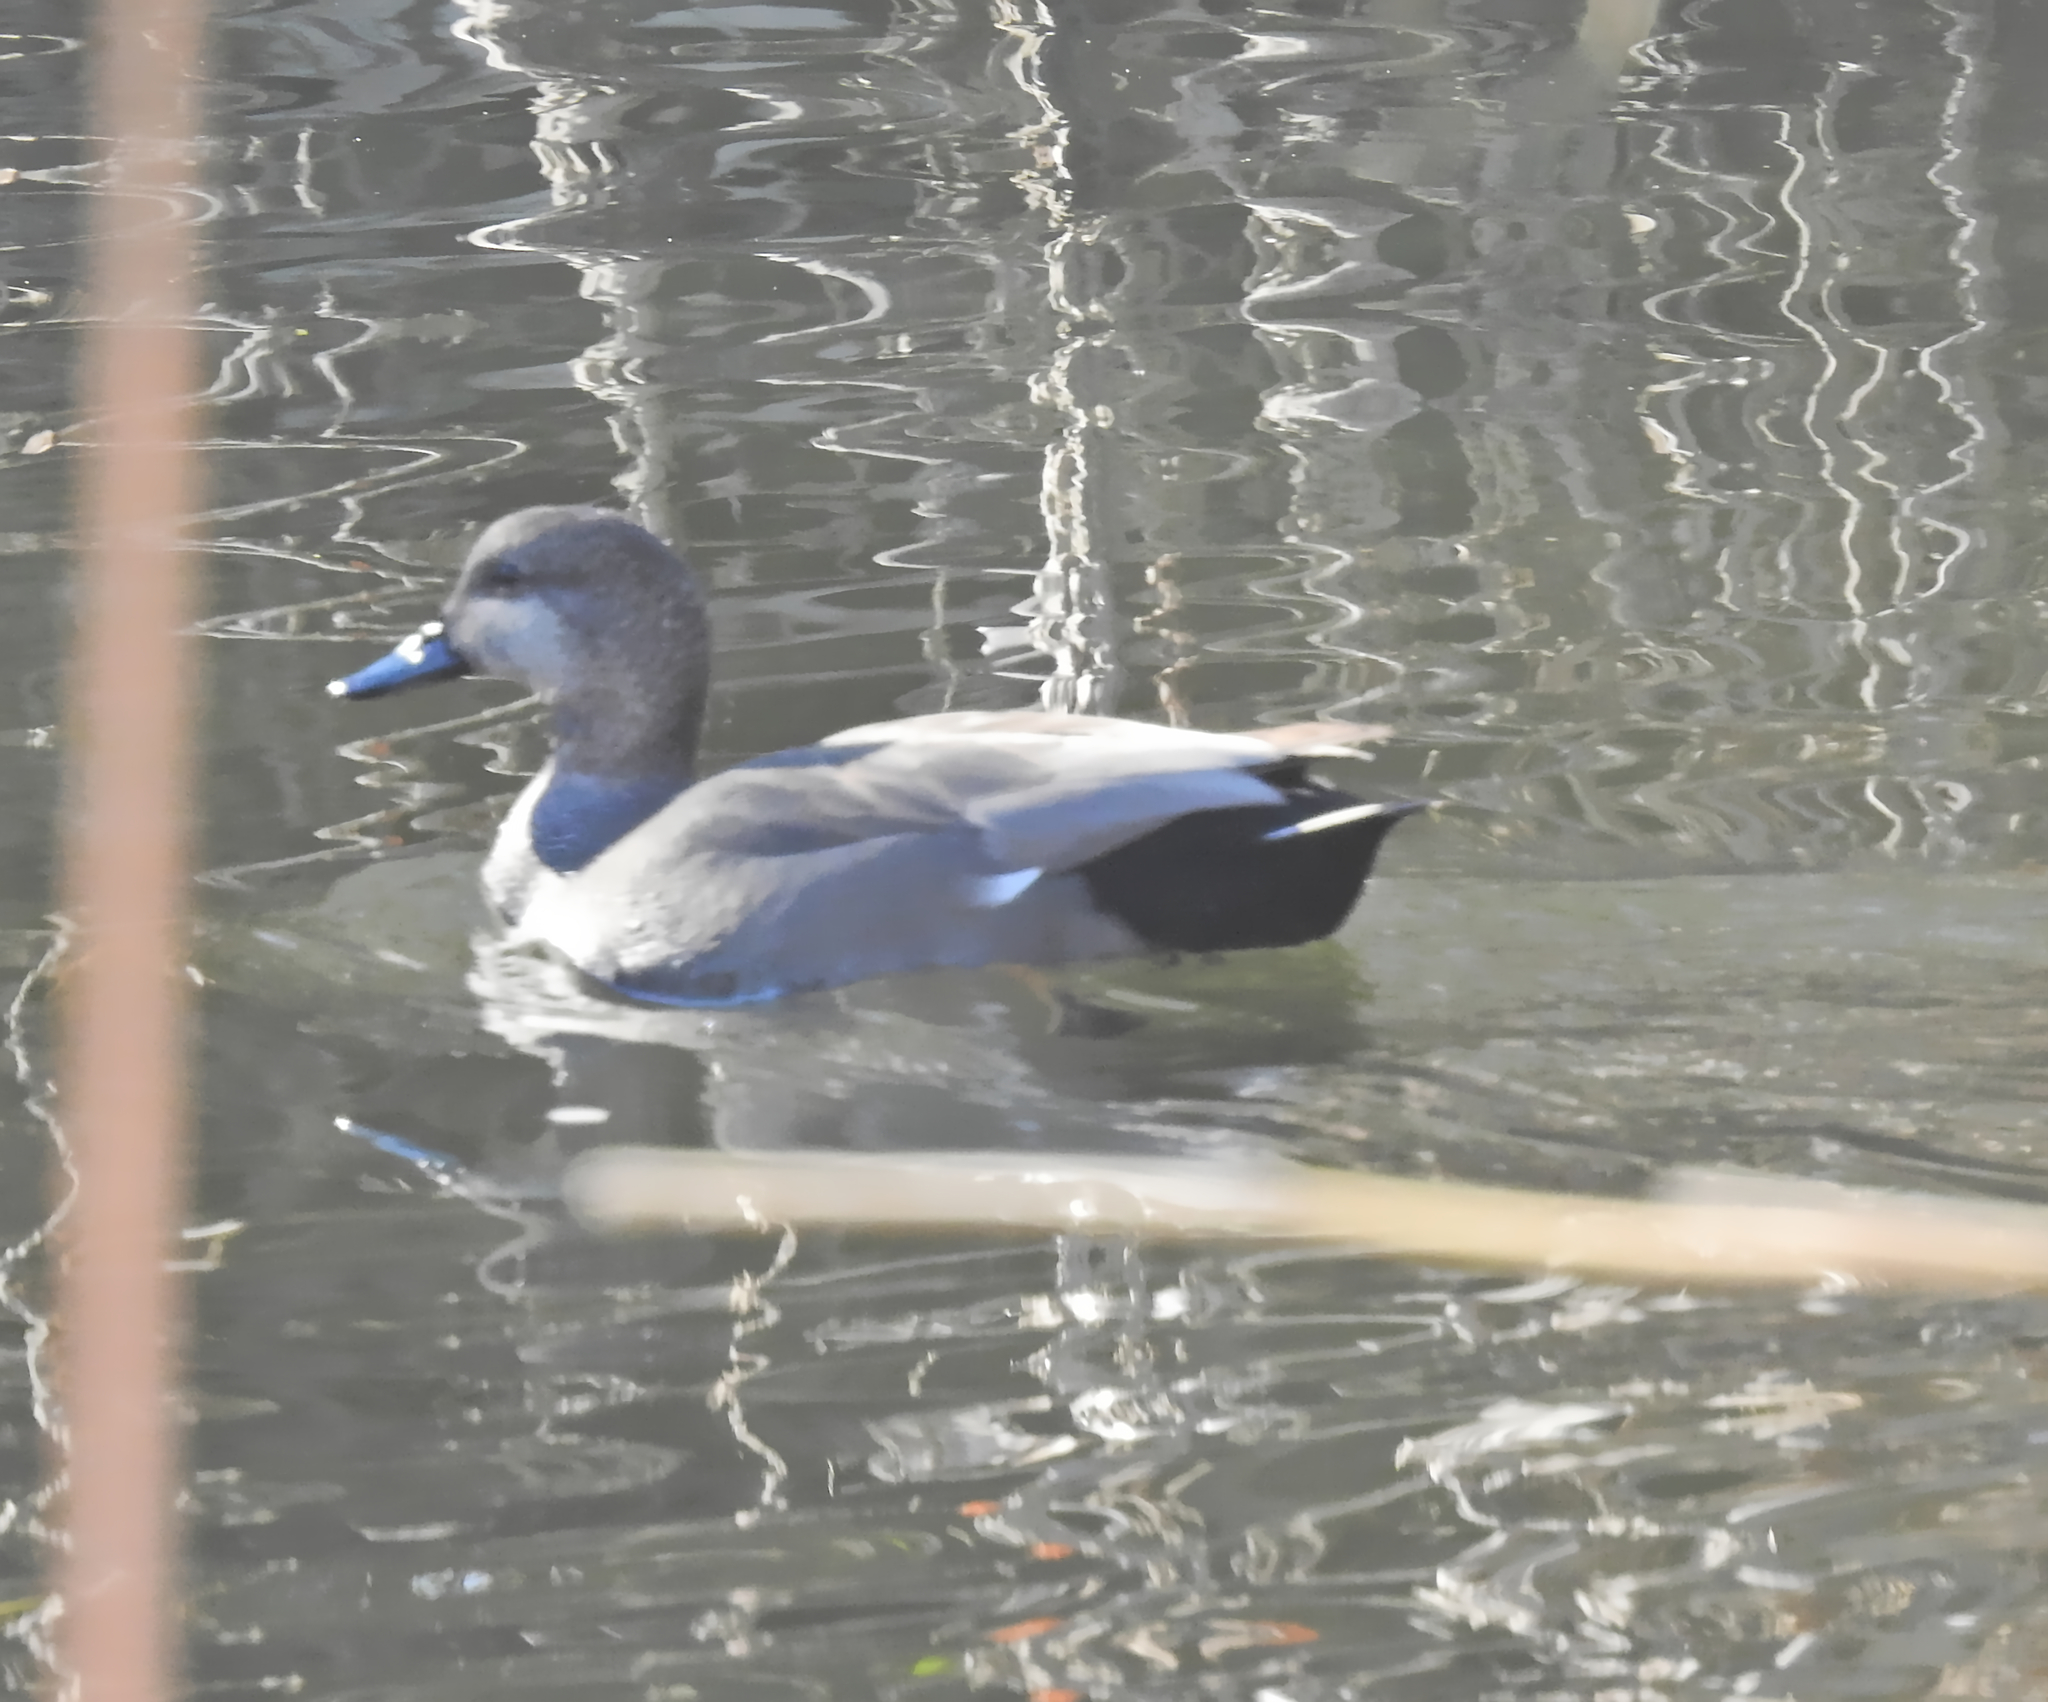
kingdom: Animalia
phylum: Chordata
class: Aves
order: Anseriformes
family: Anatidae
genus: Mareca
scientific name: Mareca strepera
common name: Gadwall
